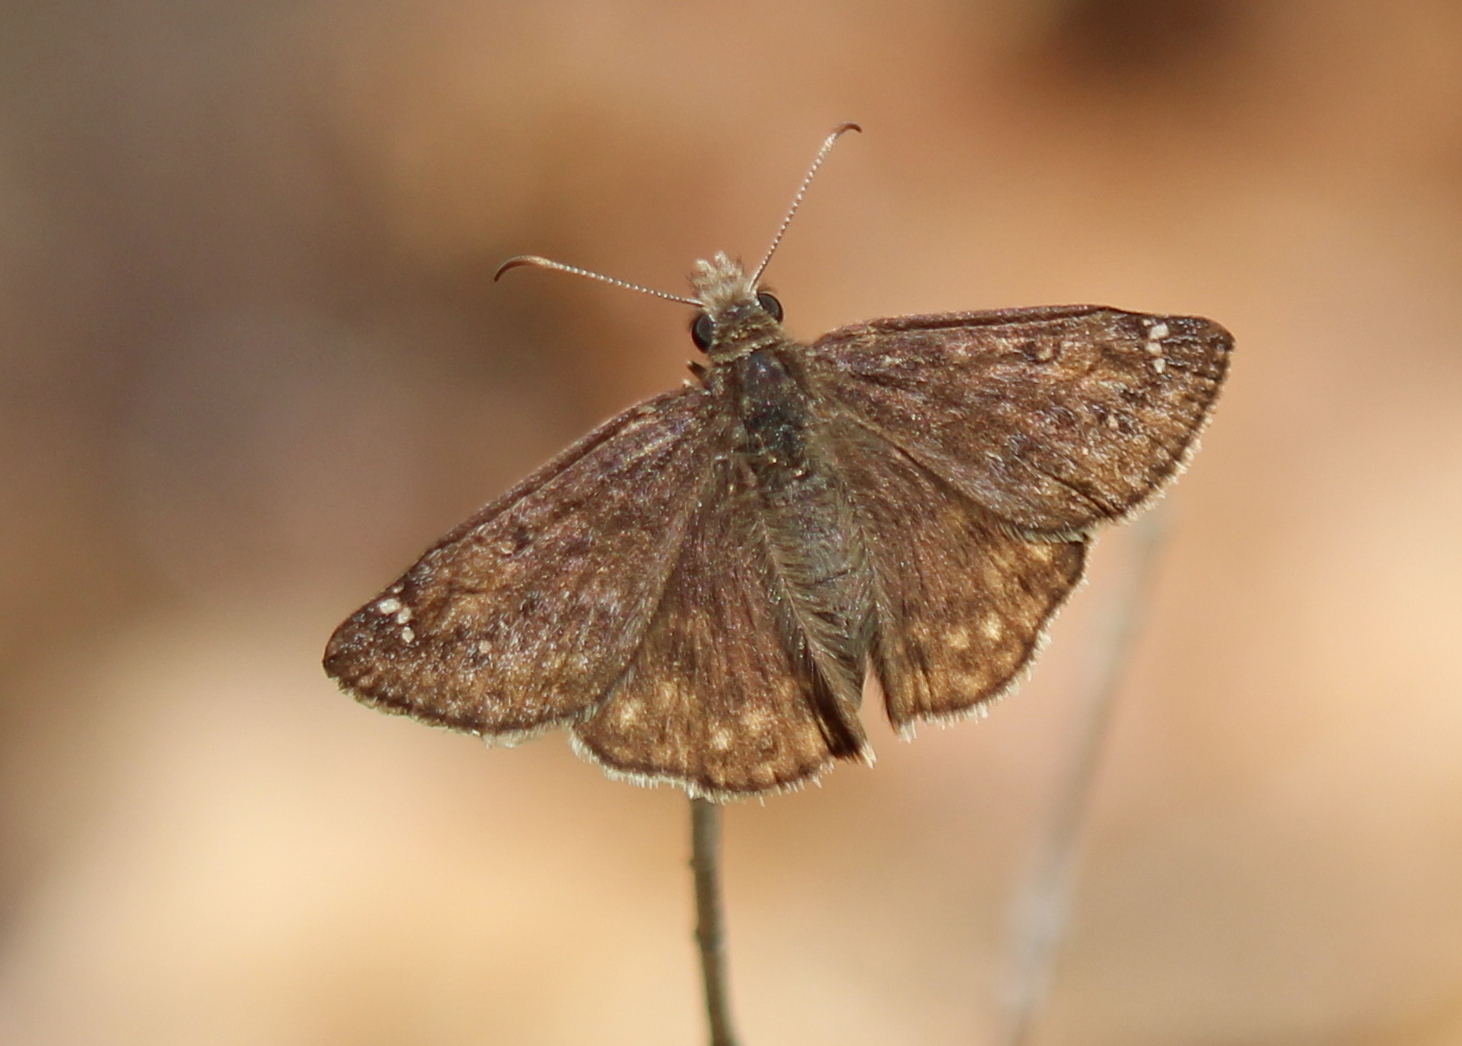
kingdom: Animalia
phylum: Arthropoda
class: Insecta
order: Lepidoptera
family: Hesperiidae
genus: Erynnis
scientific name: Erynnis juvenalis
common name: Juvenal's duskywing
